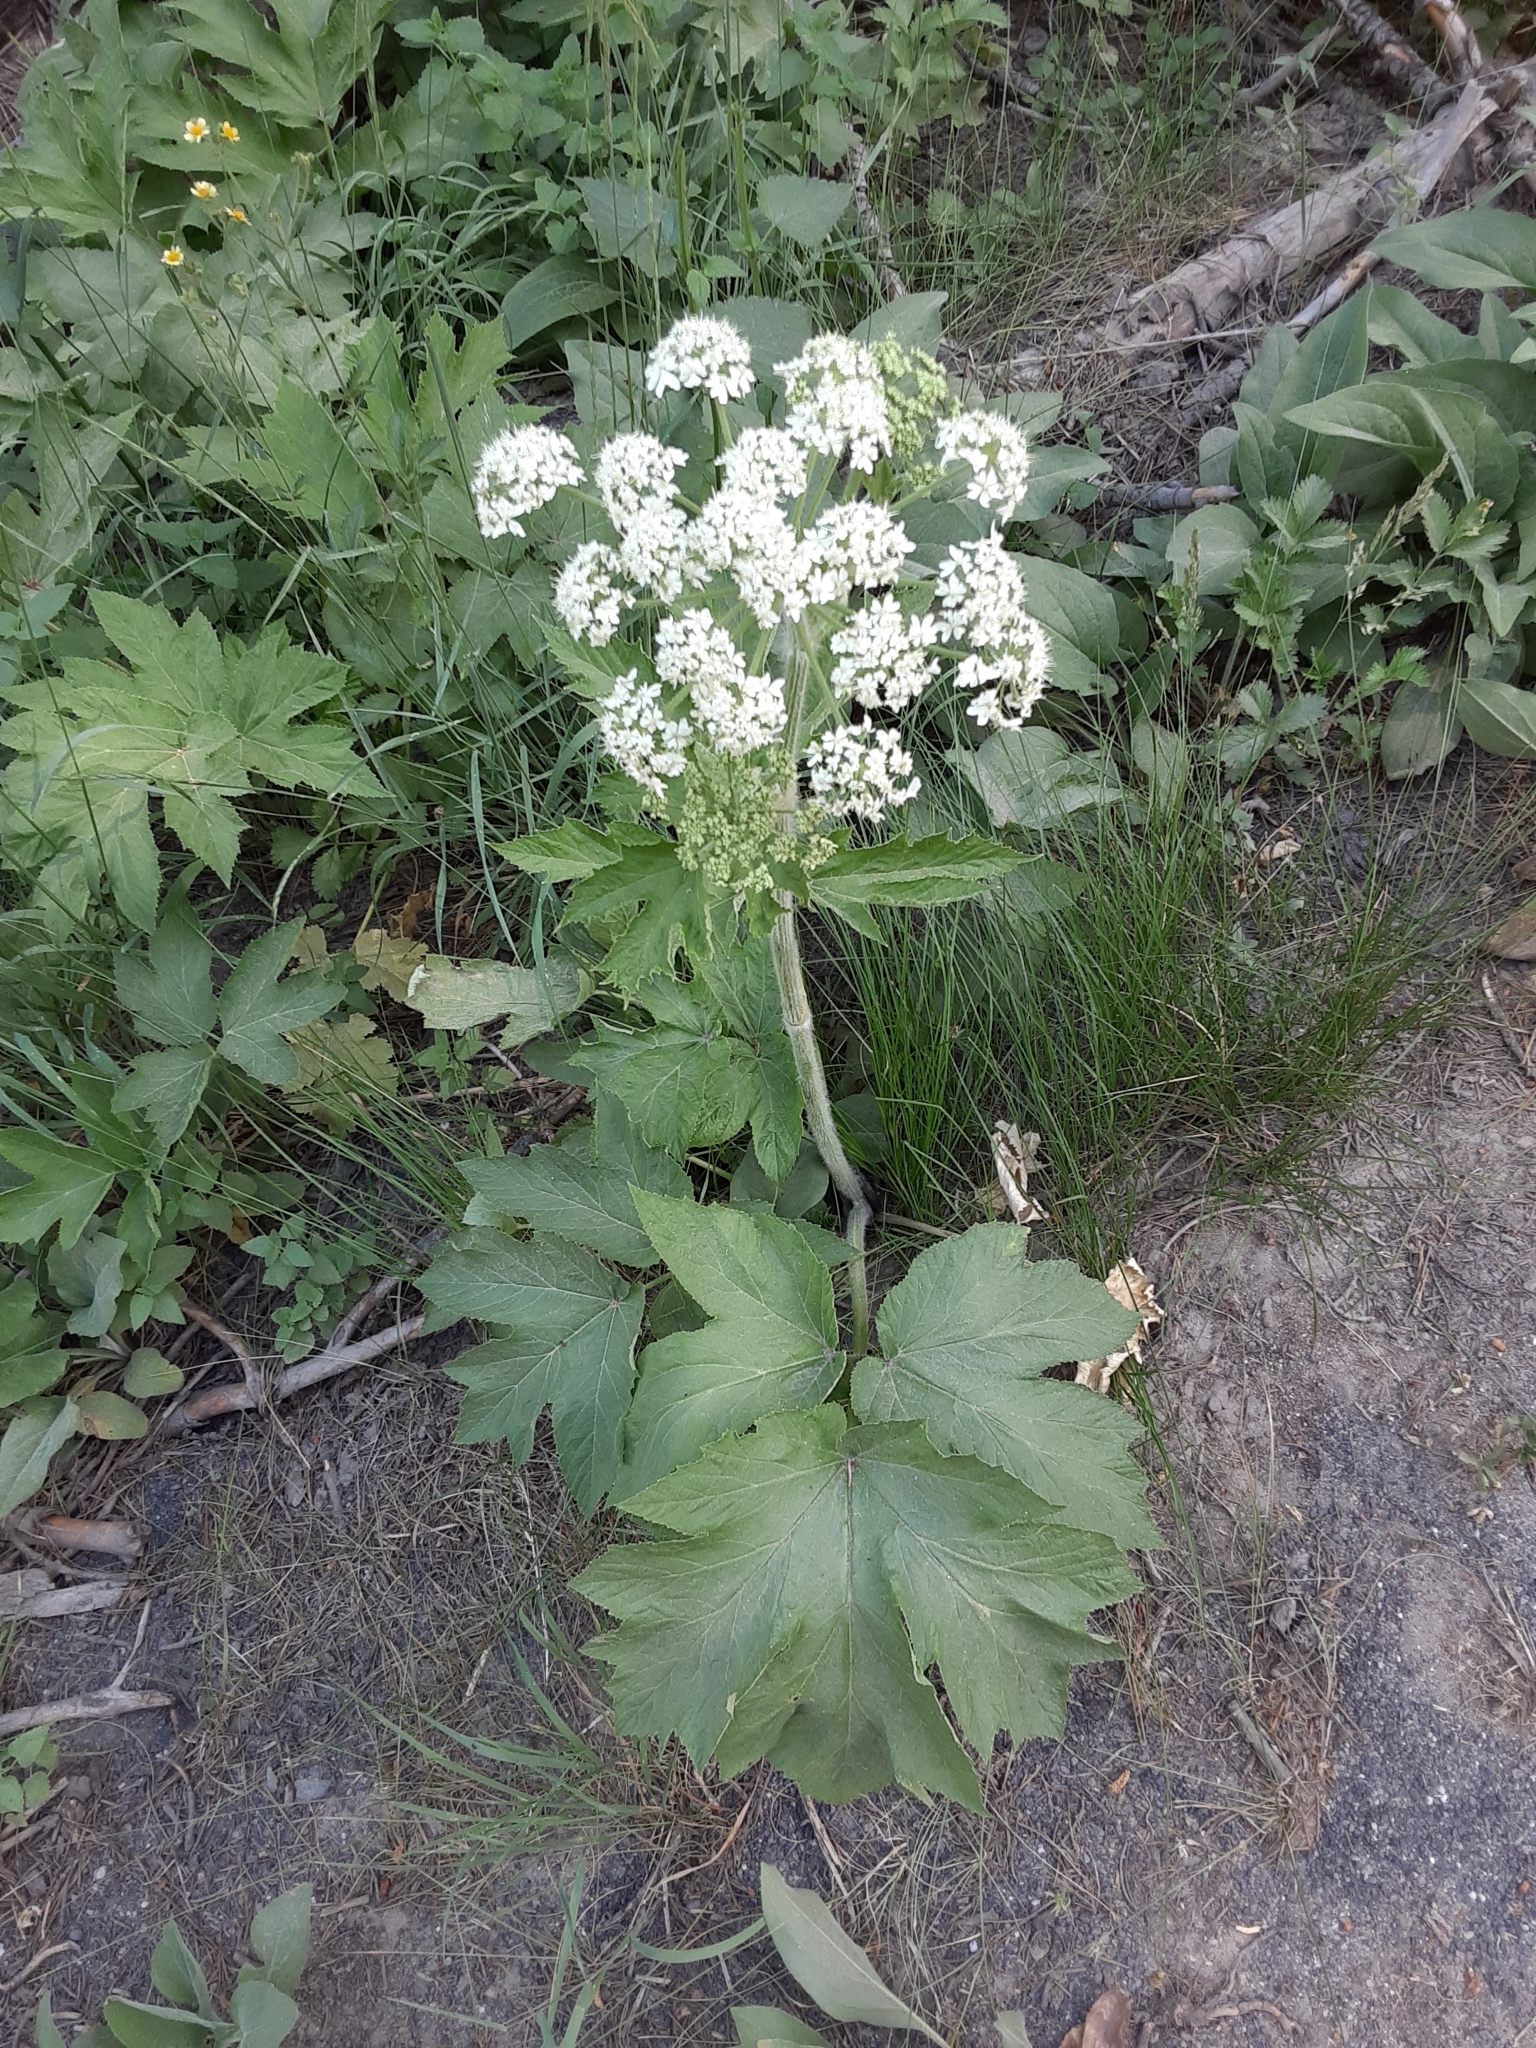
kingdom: Plantae
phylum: Tracheophyta
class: Magnoliopsida
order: Apiales
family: Apiaceae
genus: Heracleum
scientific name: Heracleum maximum
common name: American cow parsnip
